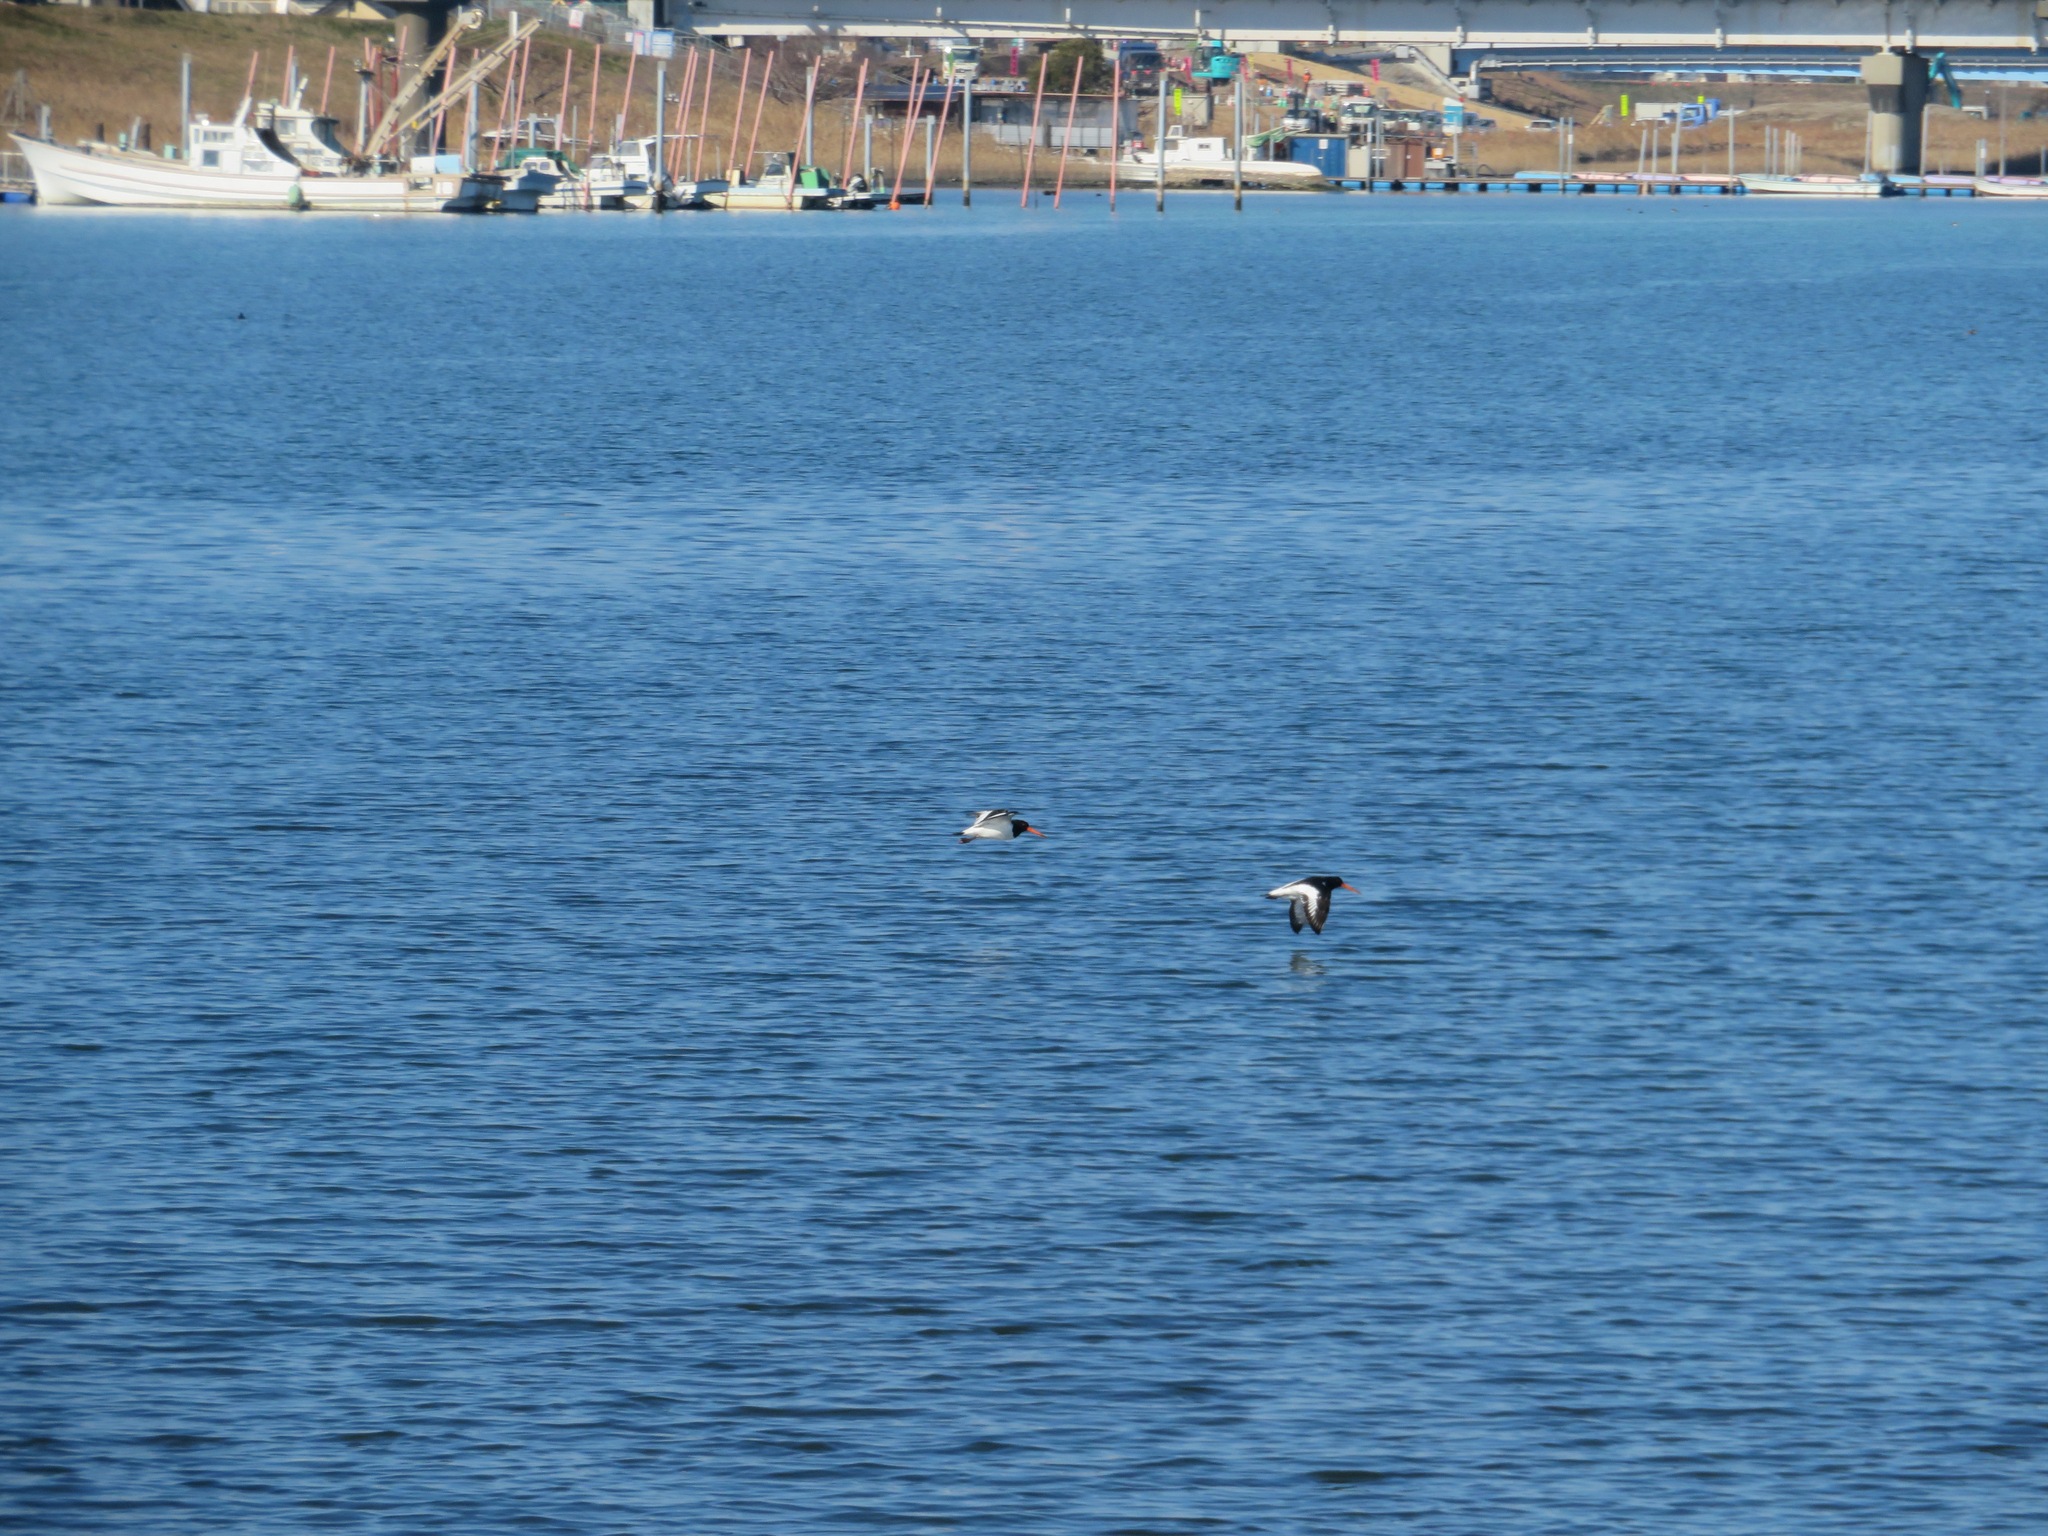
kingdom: Animalia
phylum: Chordata
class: Aves
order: Charadriiformes
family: Haematopodidae
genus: Haematopus
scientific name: Haematopus ostralegus
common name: Eurasian oystercatcher
